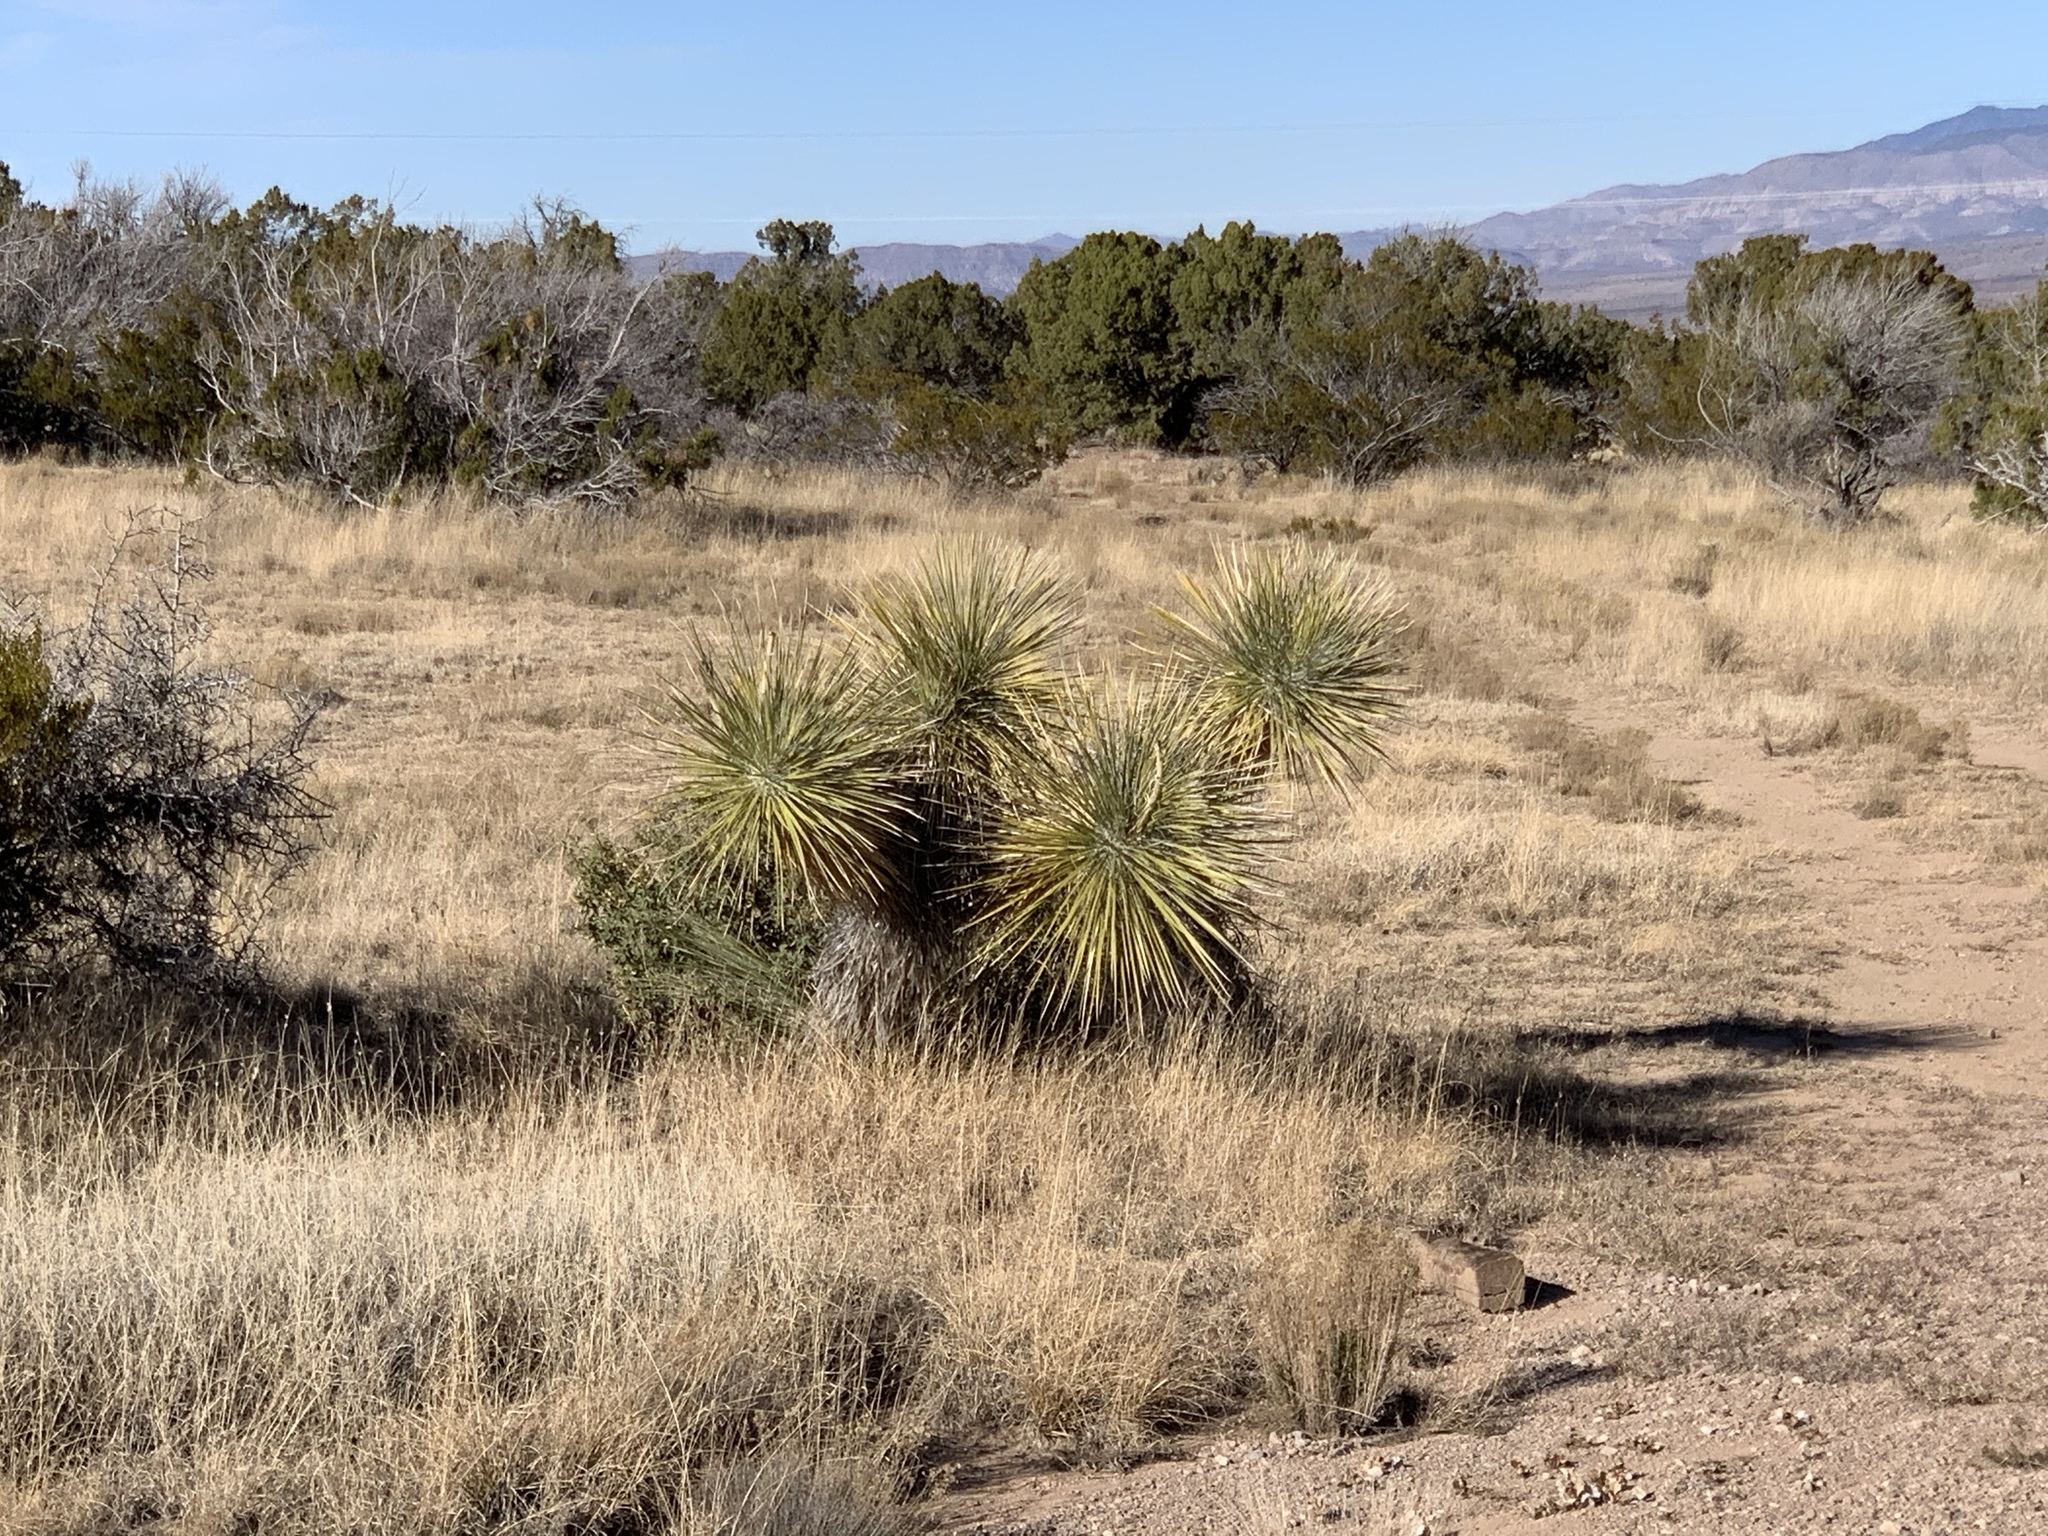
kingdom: Plantae
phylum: Tracheophyta
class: Liliopsida
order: Asparagales
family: Asparagaceae
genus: Yucca
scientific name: Yucca elata
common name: Palmella
